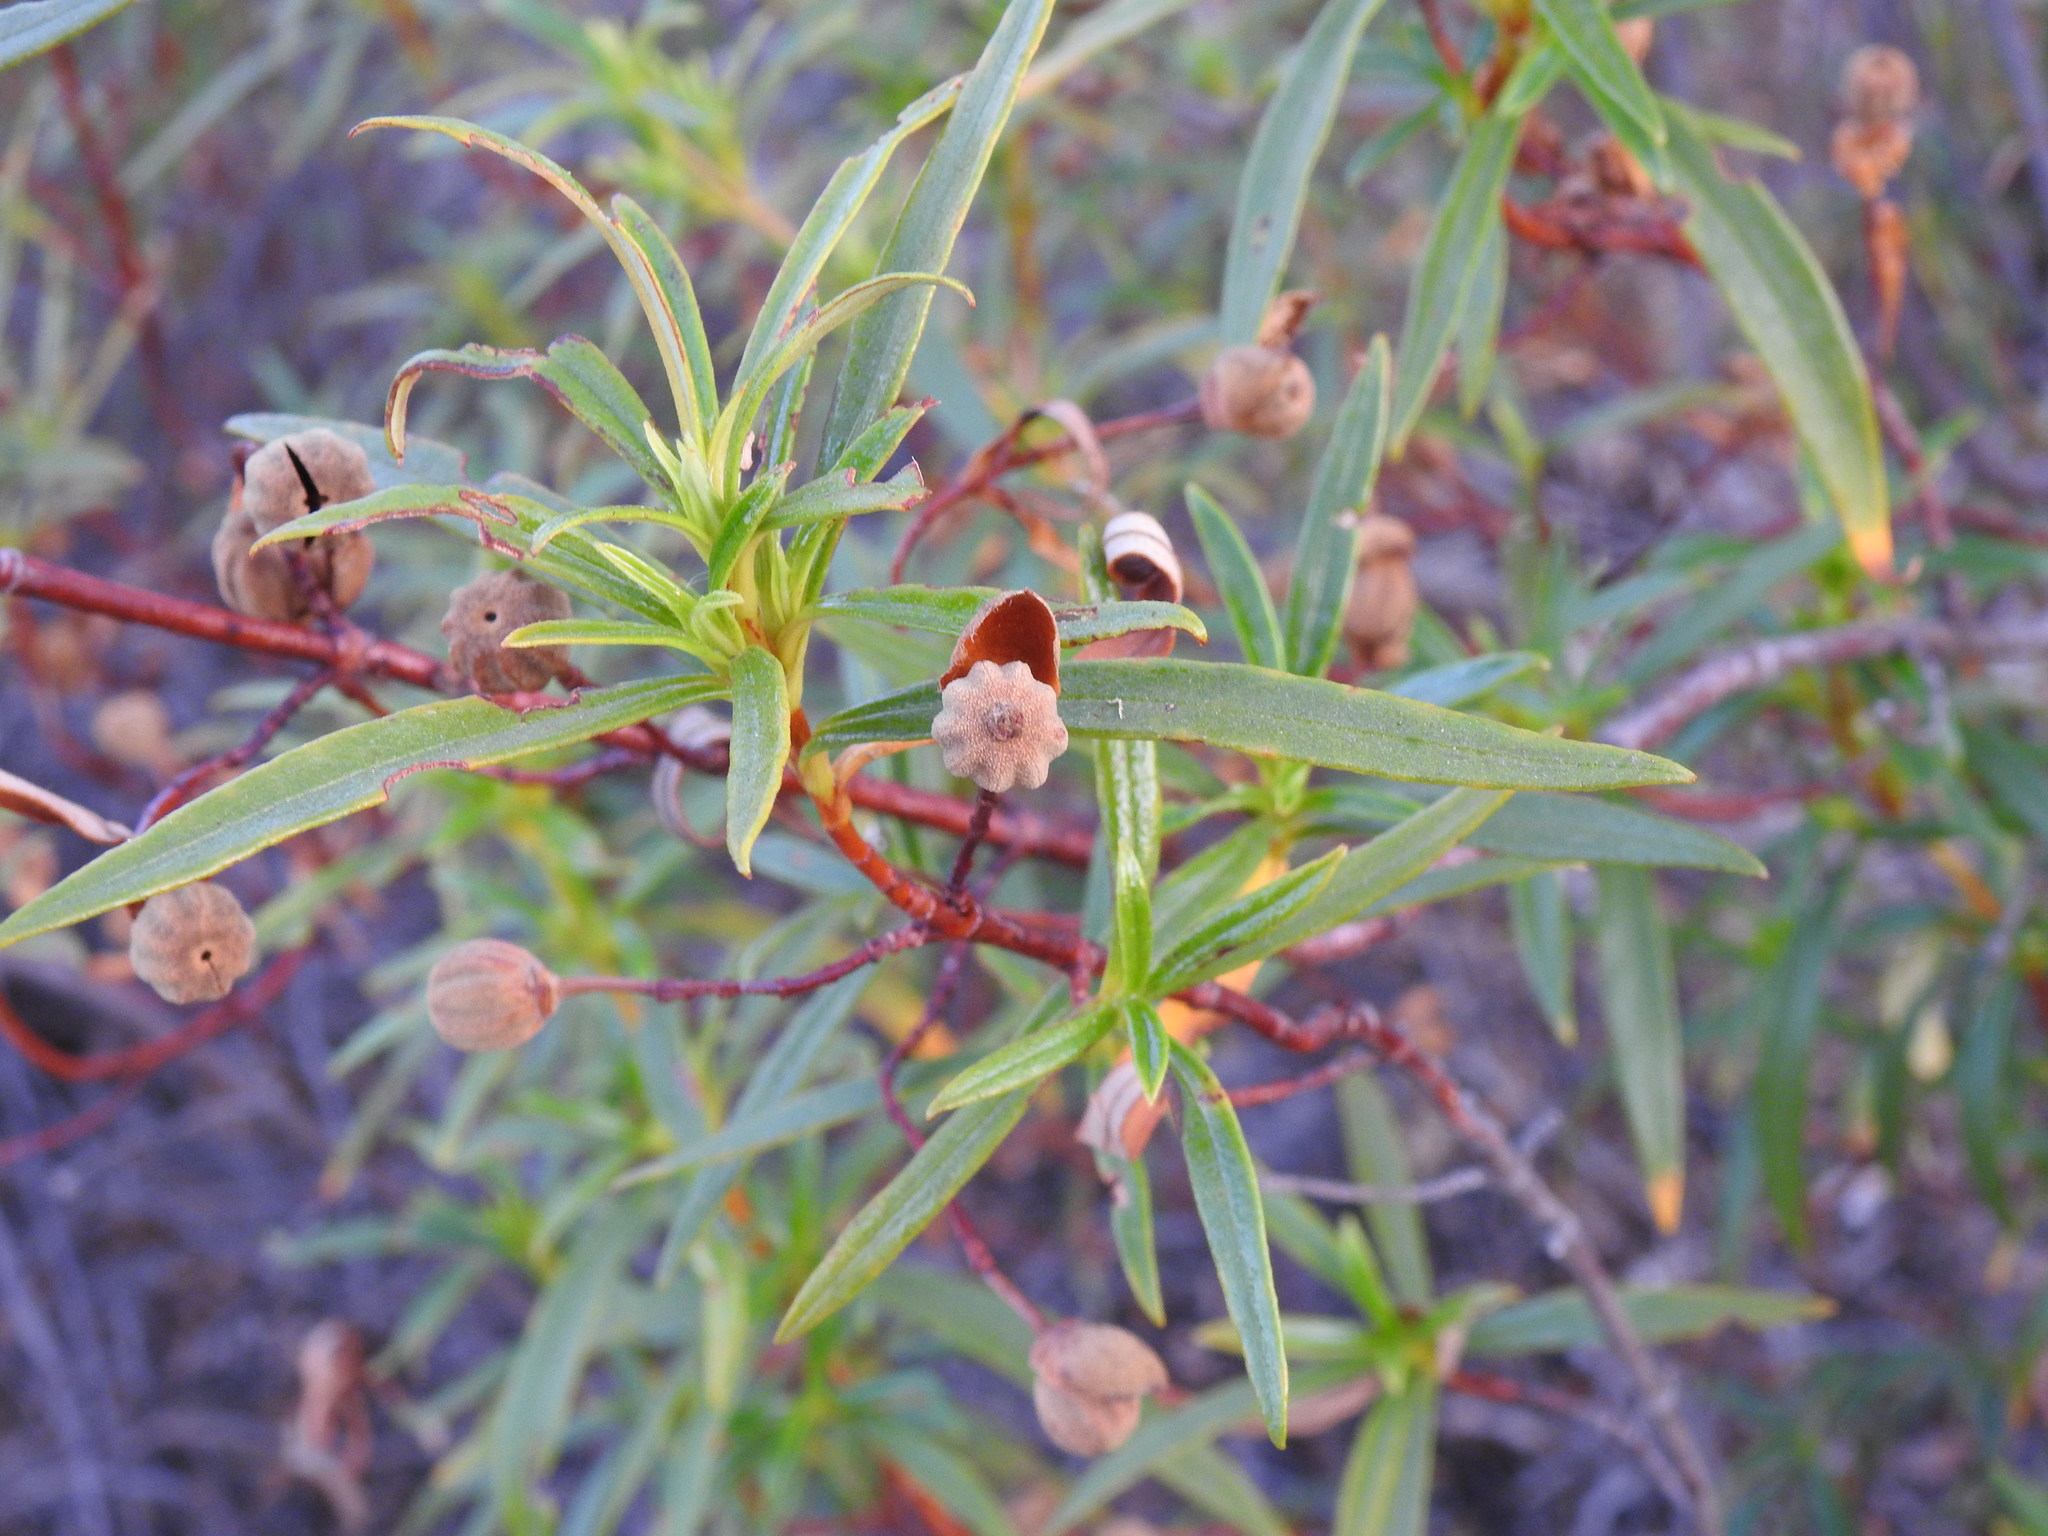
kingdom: Plantae
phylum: Tracheophyta
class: Magnoliopsida
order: Malvales
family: Cistaceae
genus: Cistus
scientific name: Cistus ladanifer
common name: Common gum cistus
